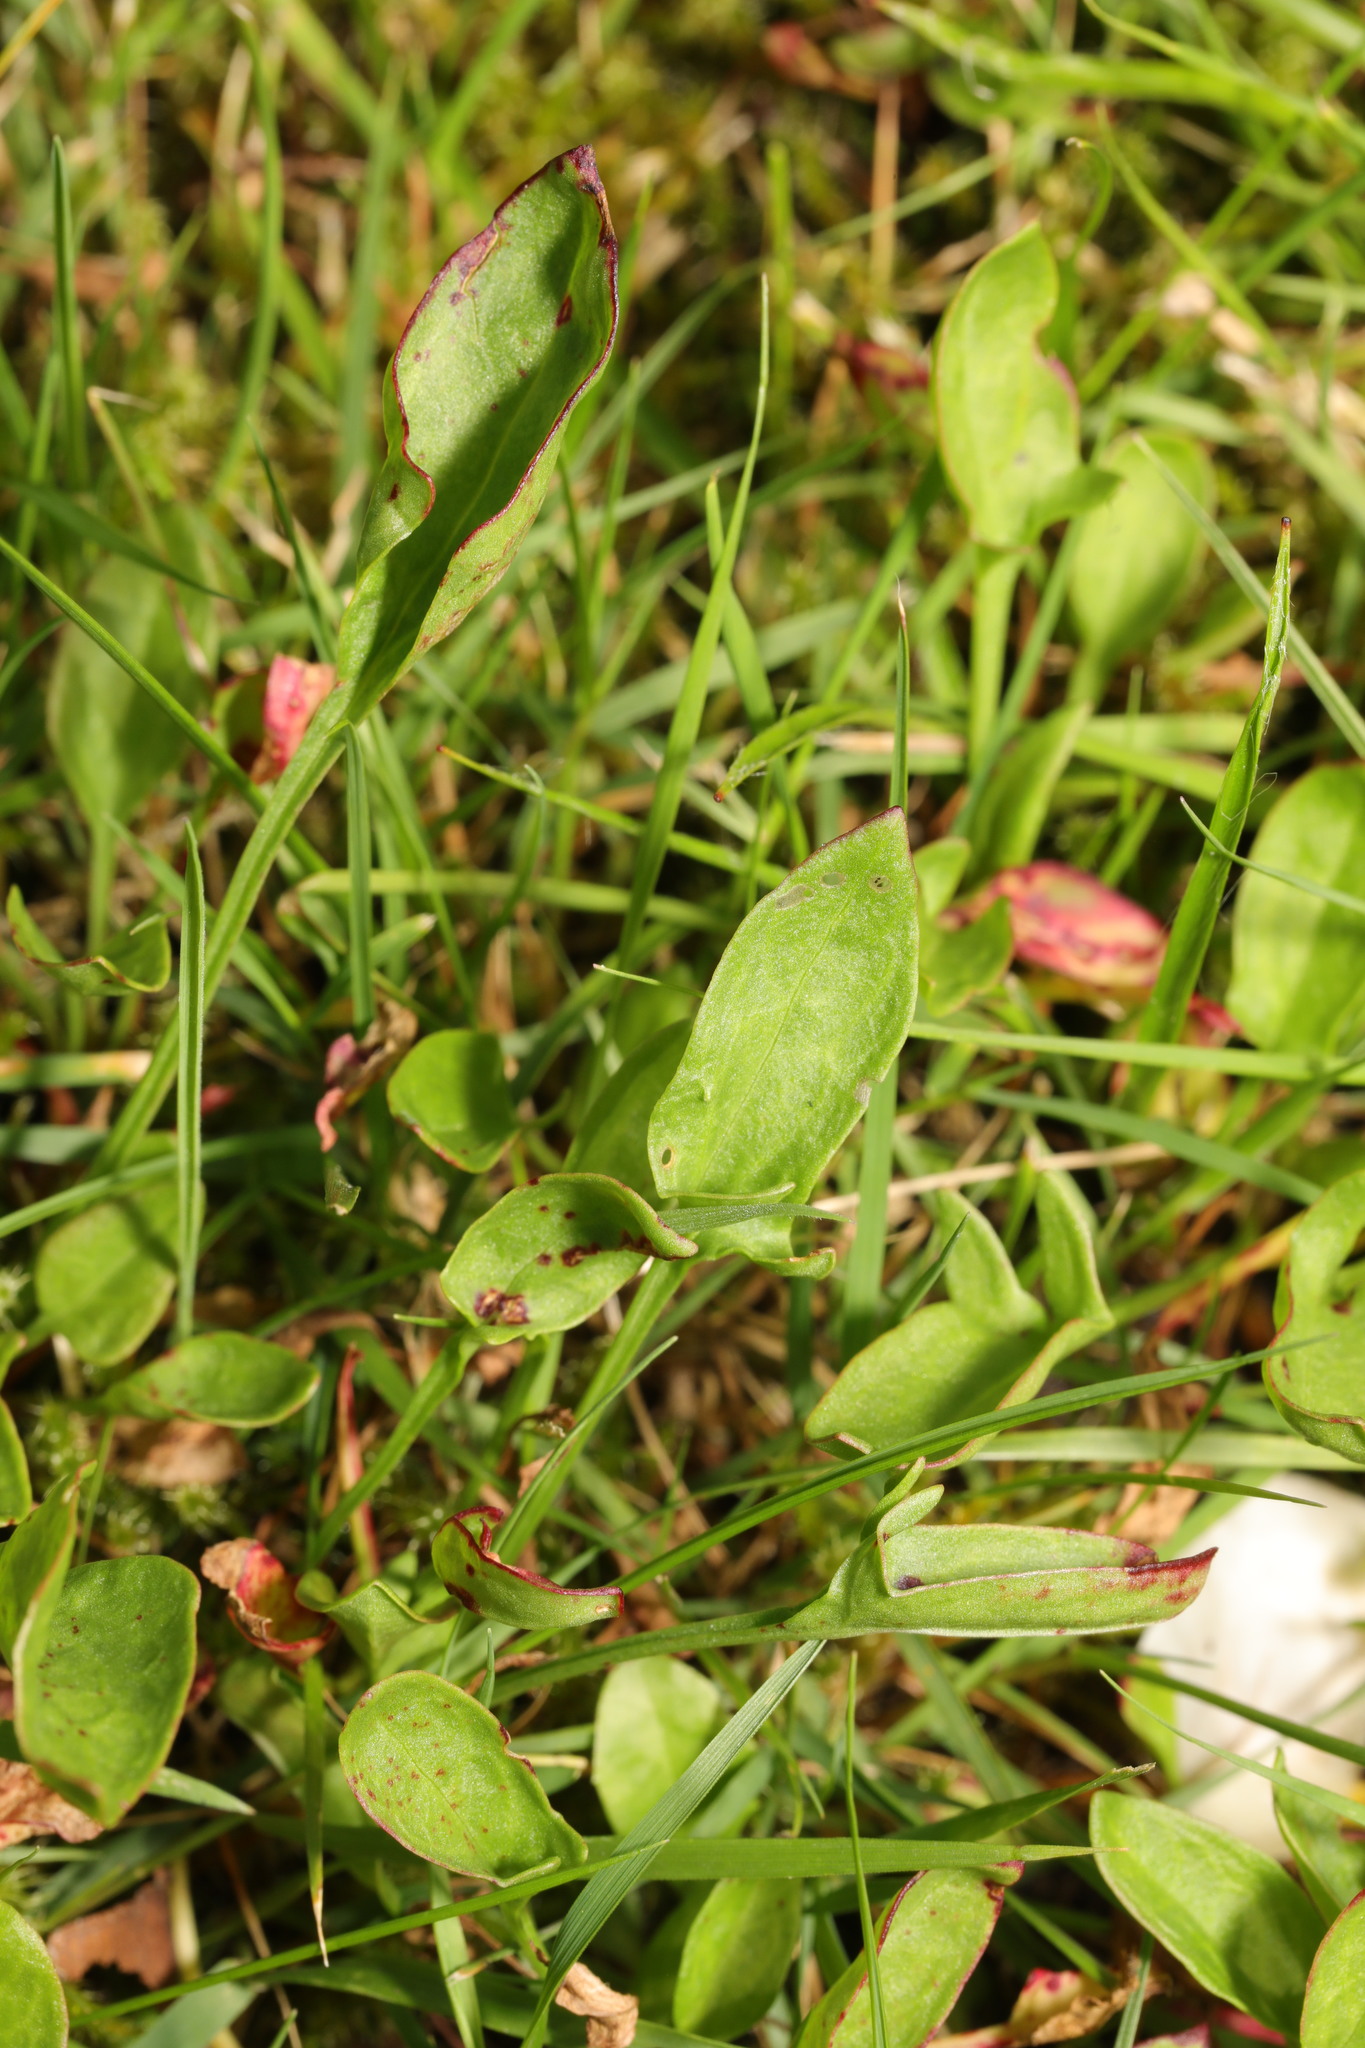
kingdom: Plantae
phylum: Tracheophyta
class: Magnoliopsida
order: Caryophyllales
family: Polygonaceae
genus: Rumex
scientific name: Rumex acetosella
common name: Common sheep sorrel
